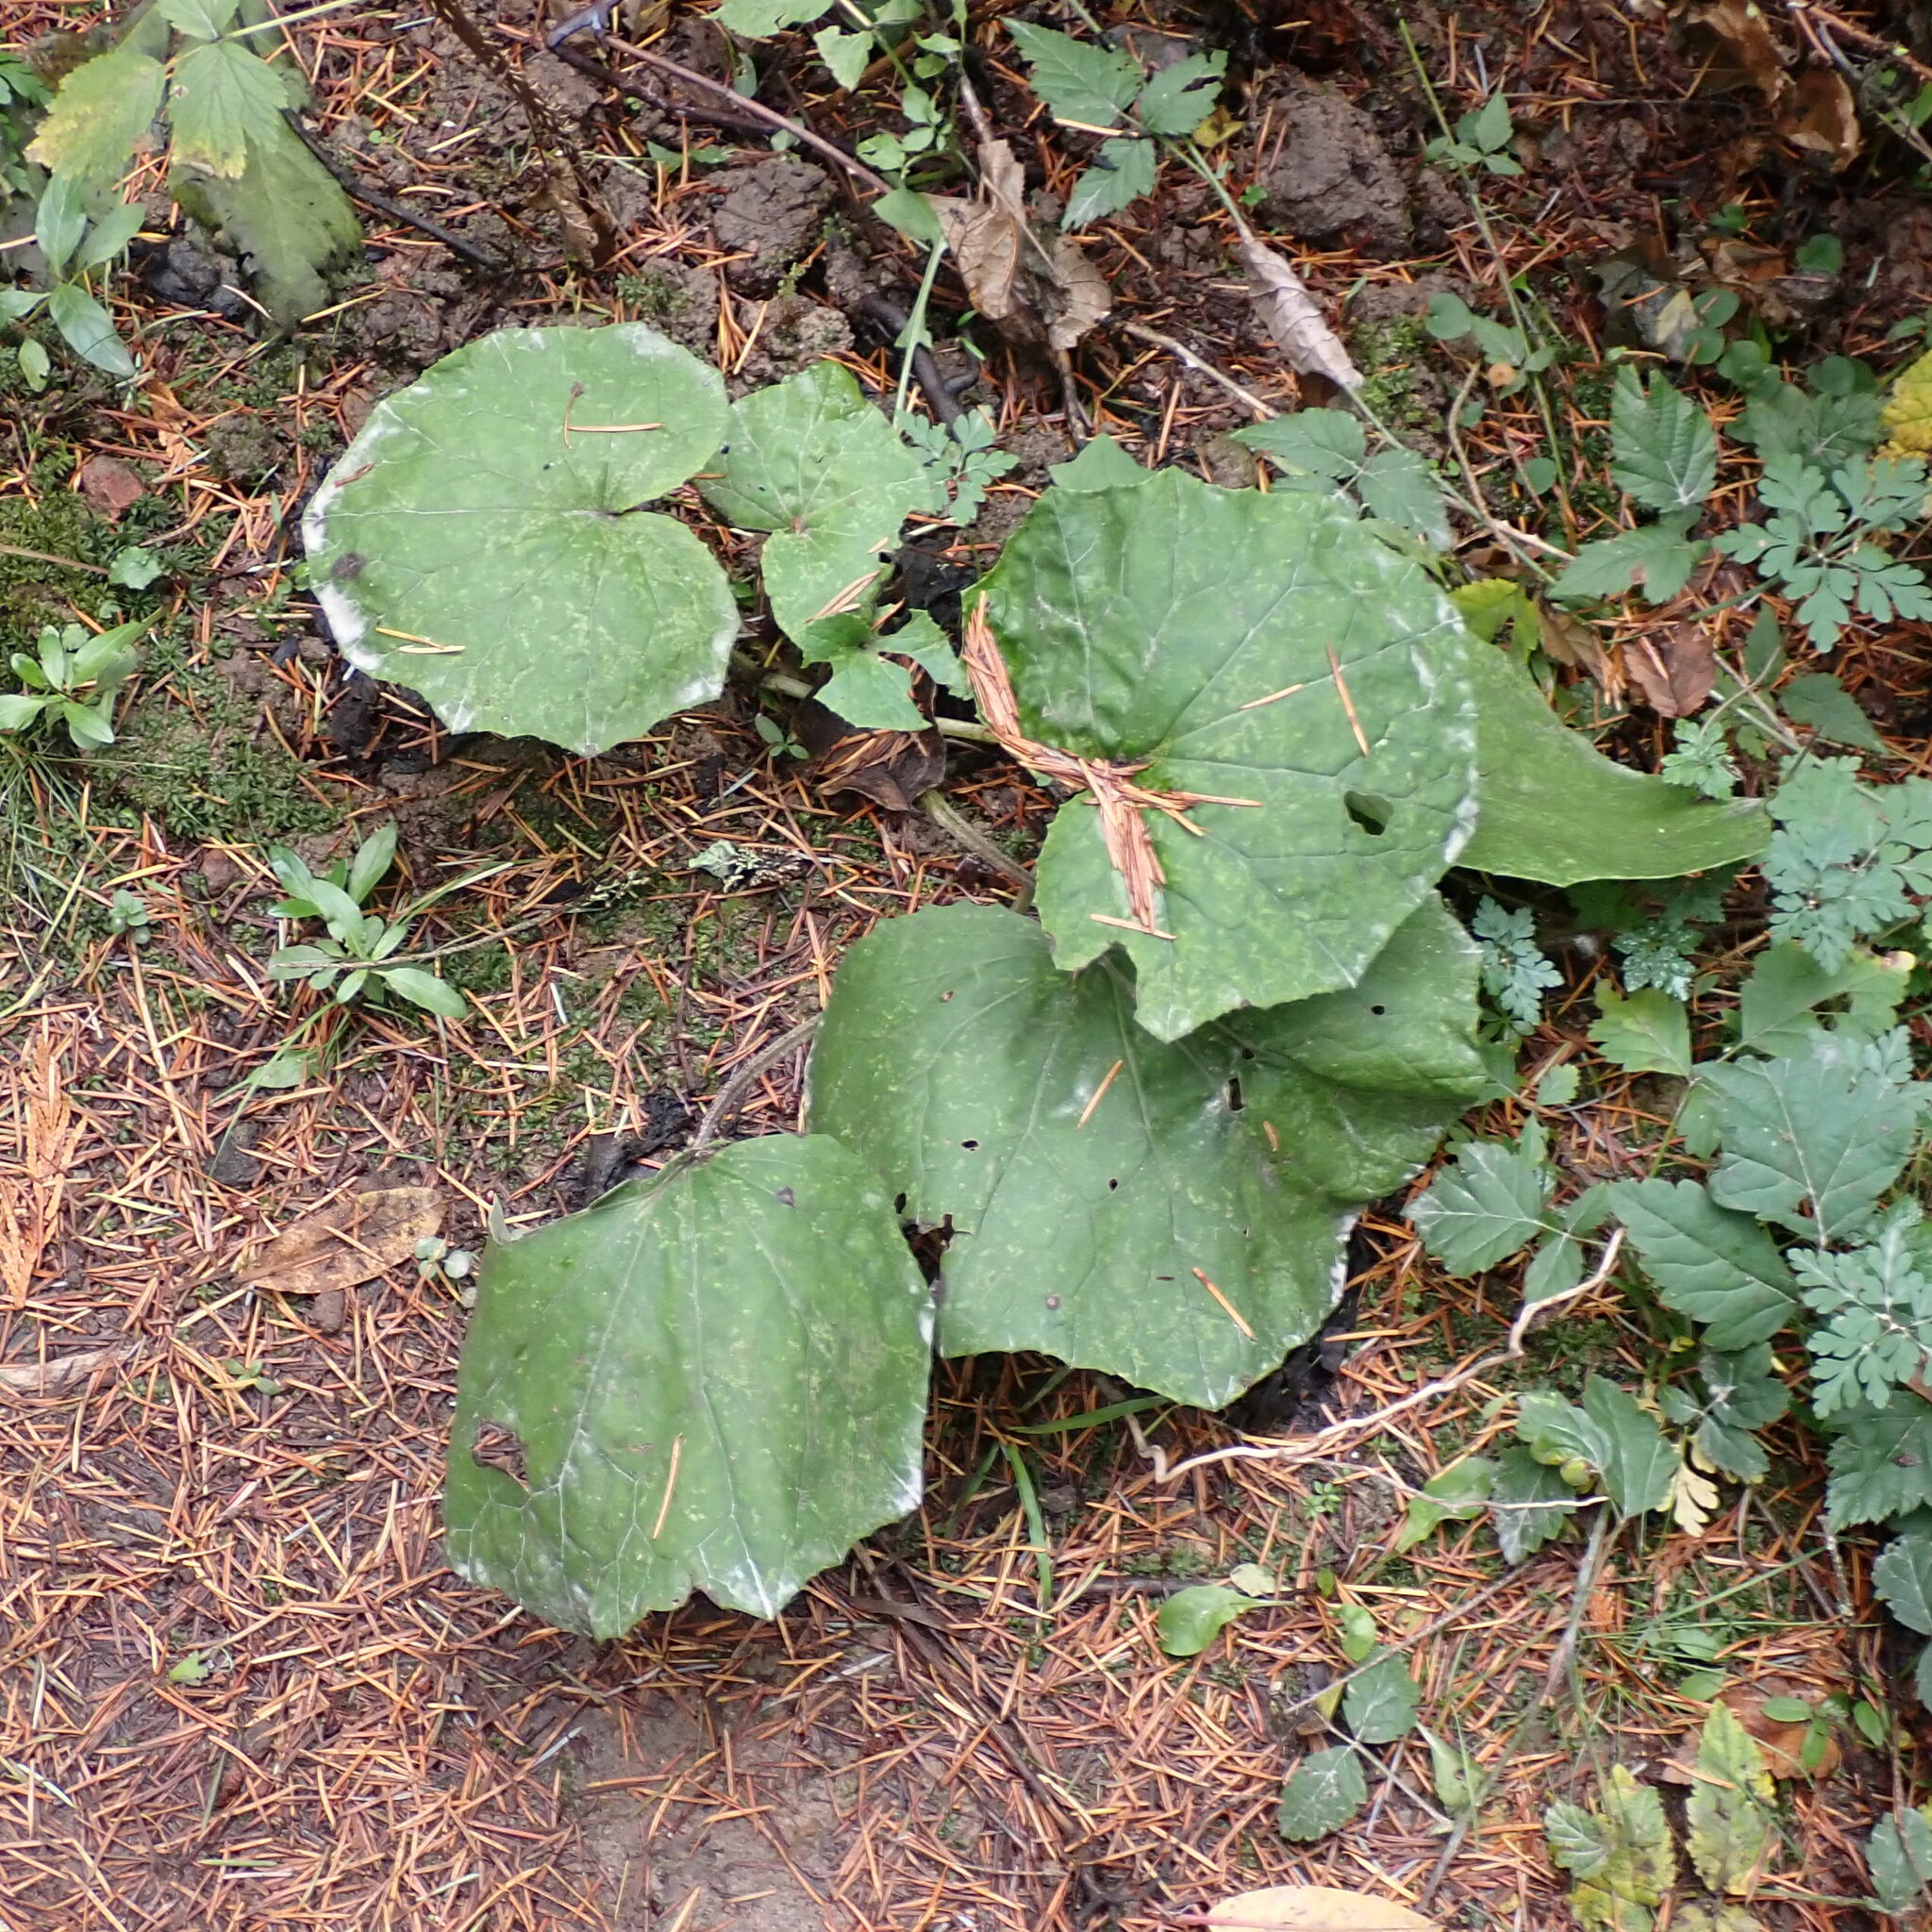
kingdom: Plantae
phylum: Tracheophyta
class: Magnoliopsida
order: Asterales
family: Asteraceae
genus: Tussilago
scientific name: Tussilago farfara
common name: Coltsfoot
